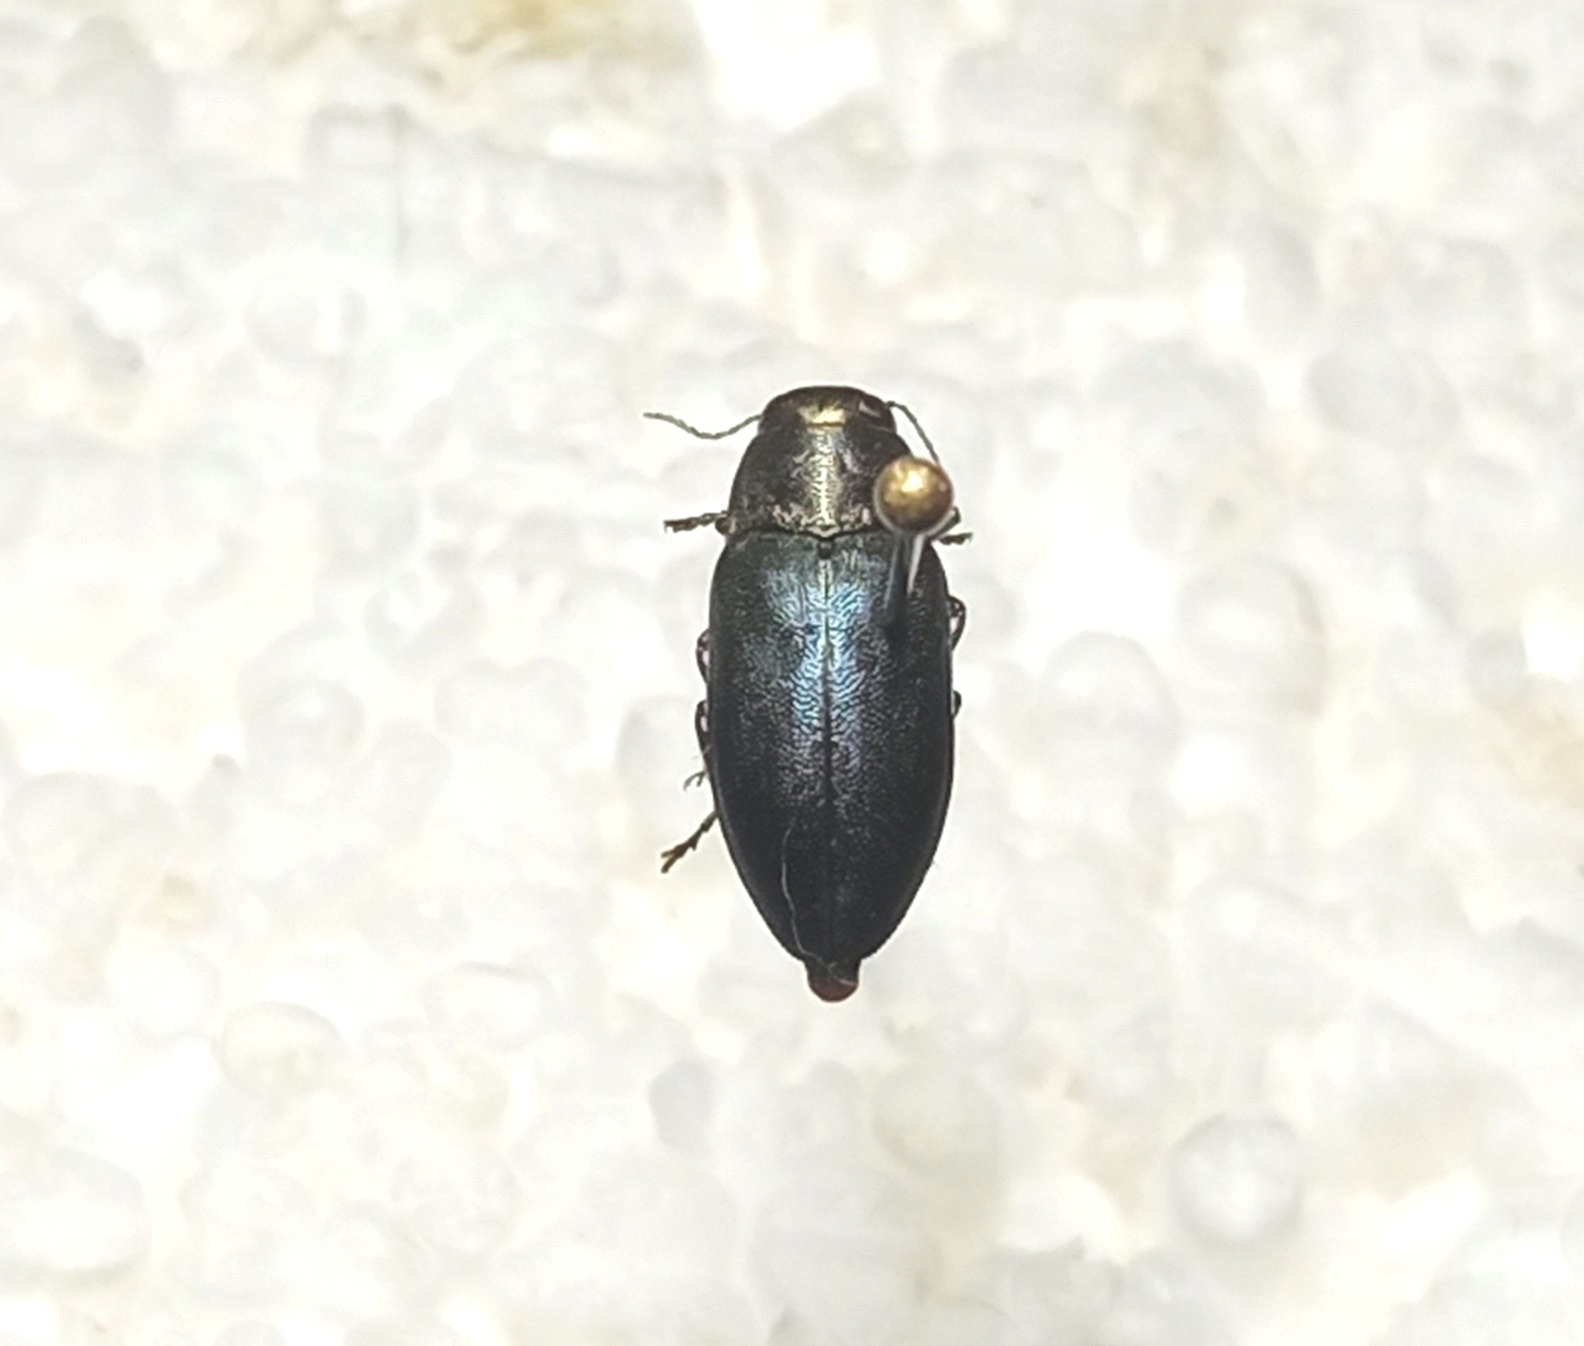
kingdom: Animalia
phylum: Arthropoda
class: Insecta
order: Coleoptera
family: Buprestidae
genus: Phaenops
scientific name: Phaenops cyanea
